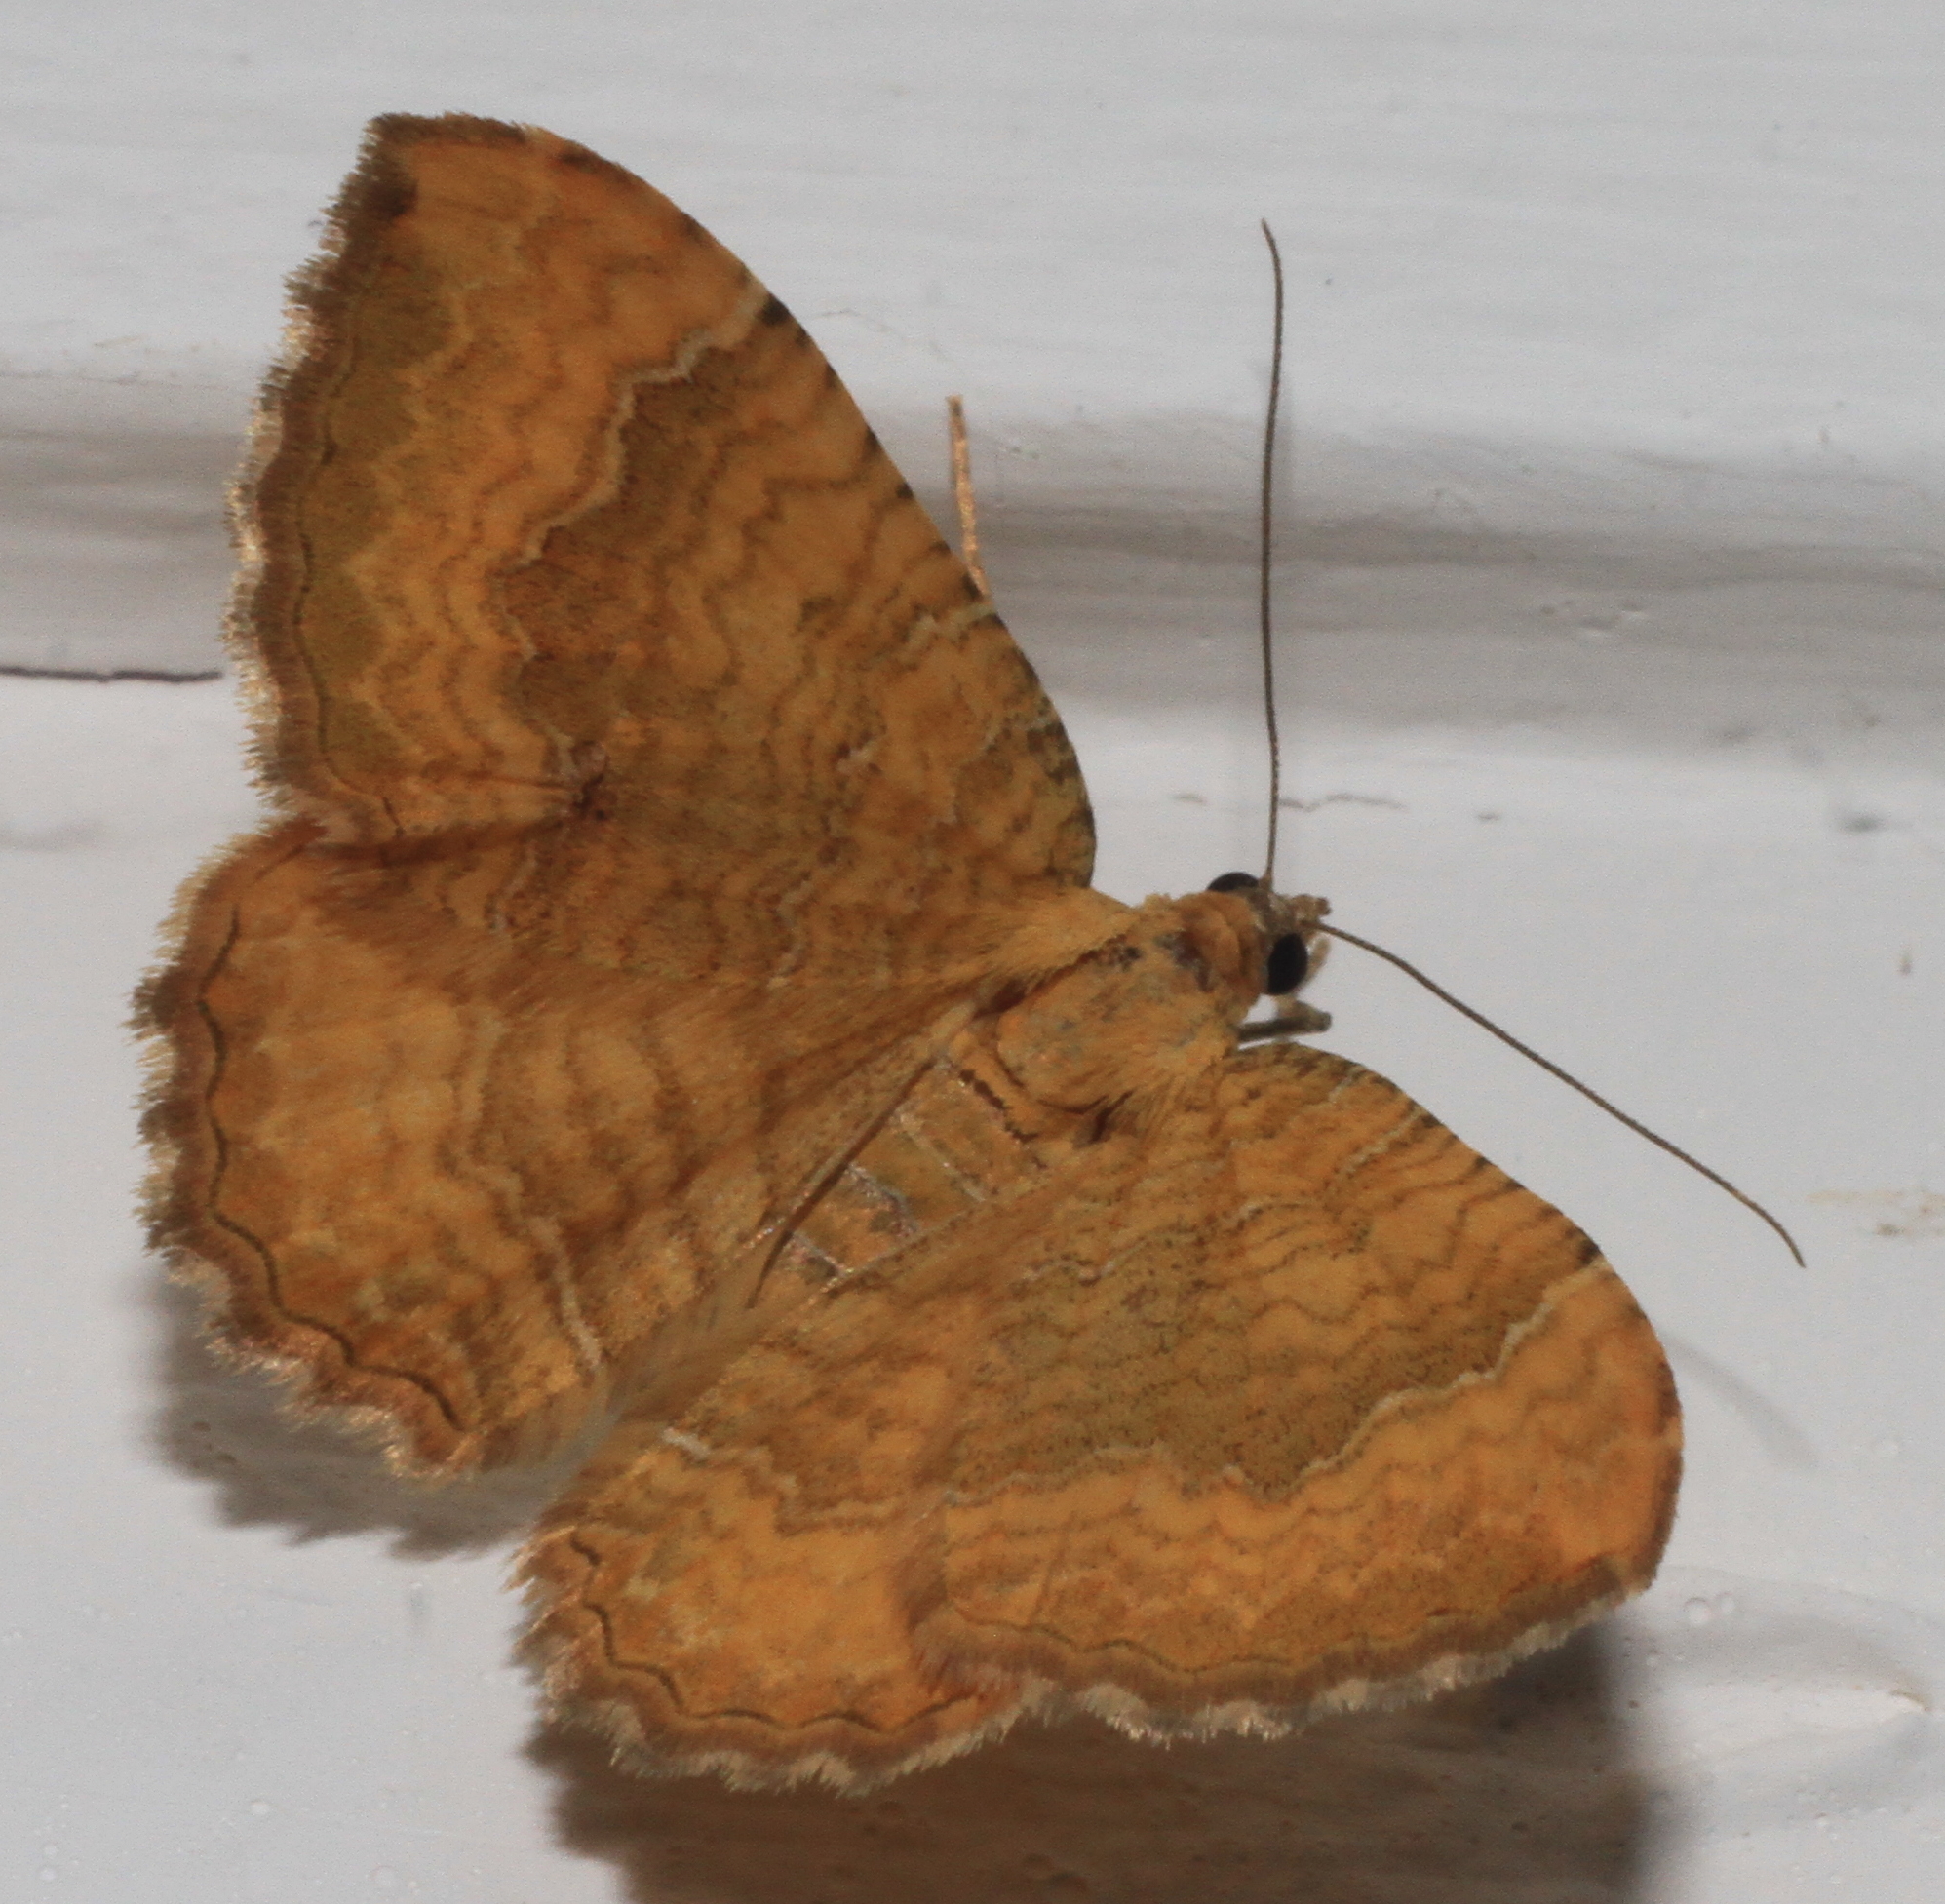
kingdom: Animalia
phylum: Arthropoda
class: Insecta
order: Lepidoptera
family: Geometridae
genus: Camptogramma
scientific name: Camptogramma bilineata
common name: Yellow shell
